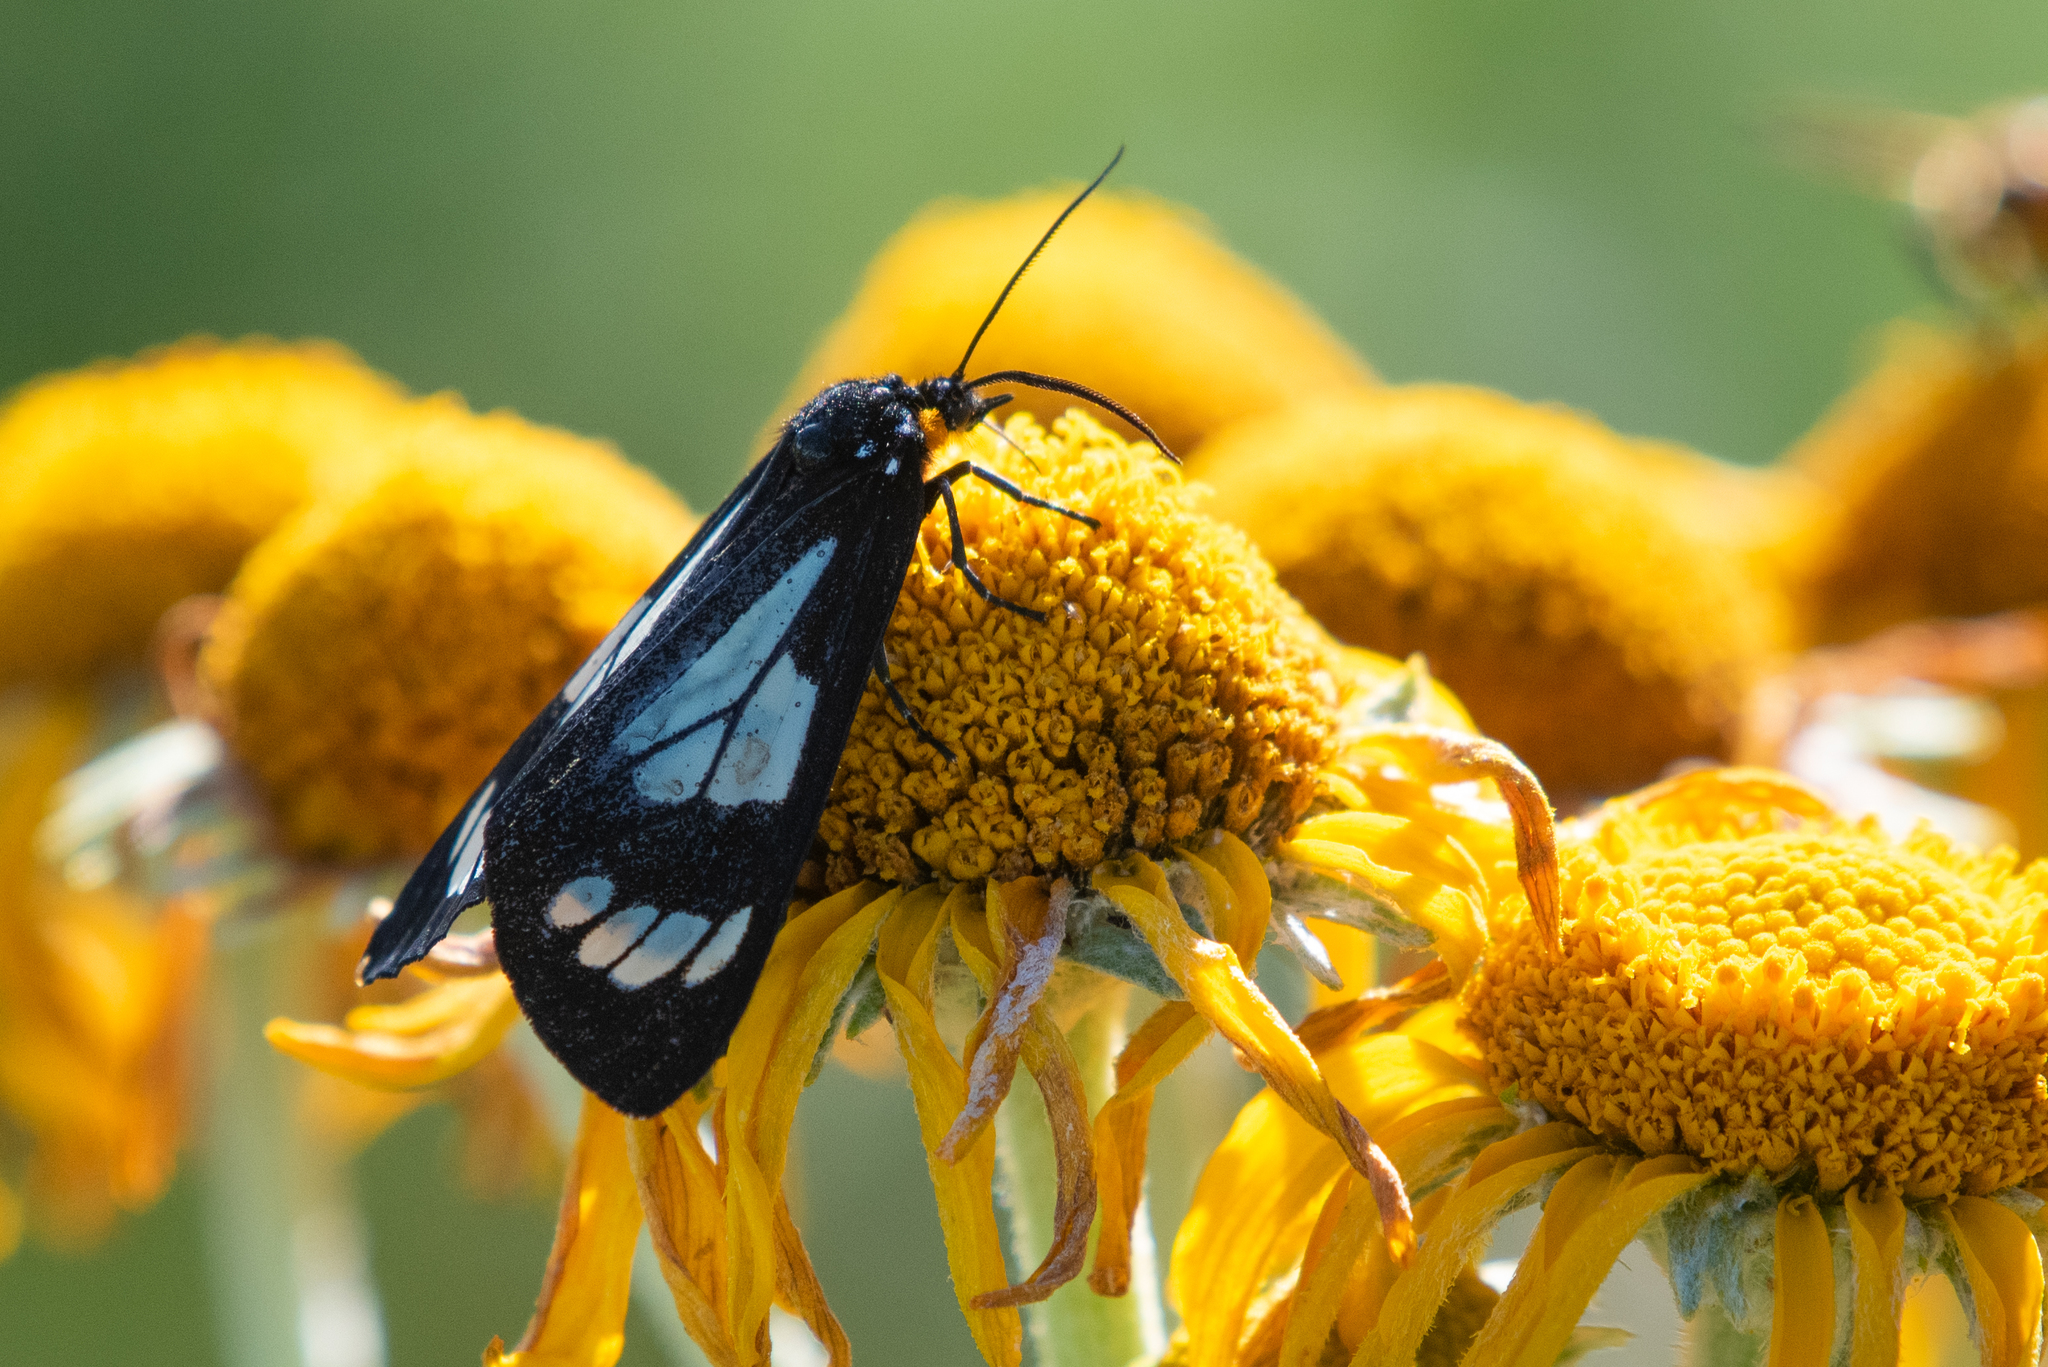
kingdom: Animalia
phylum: Arthropoda
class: Insecta
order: Lepidoptera
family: Erebidae
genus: Gnophaela
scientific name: Gnophaela discreta
